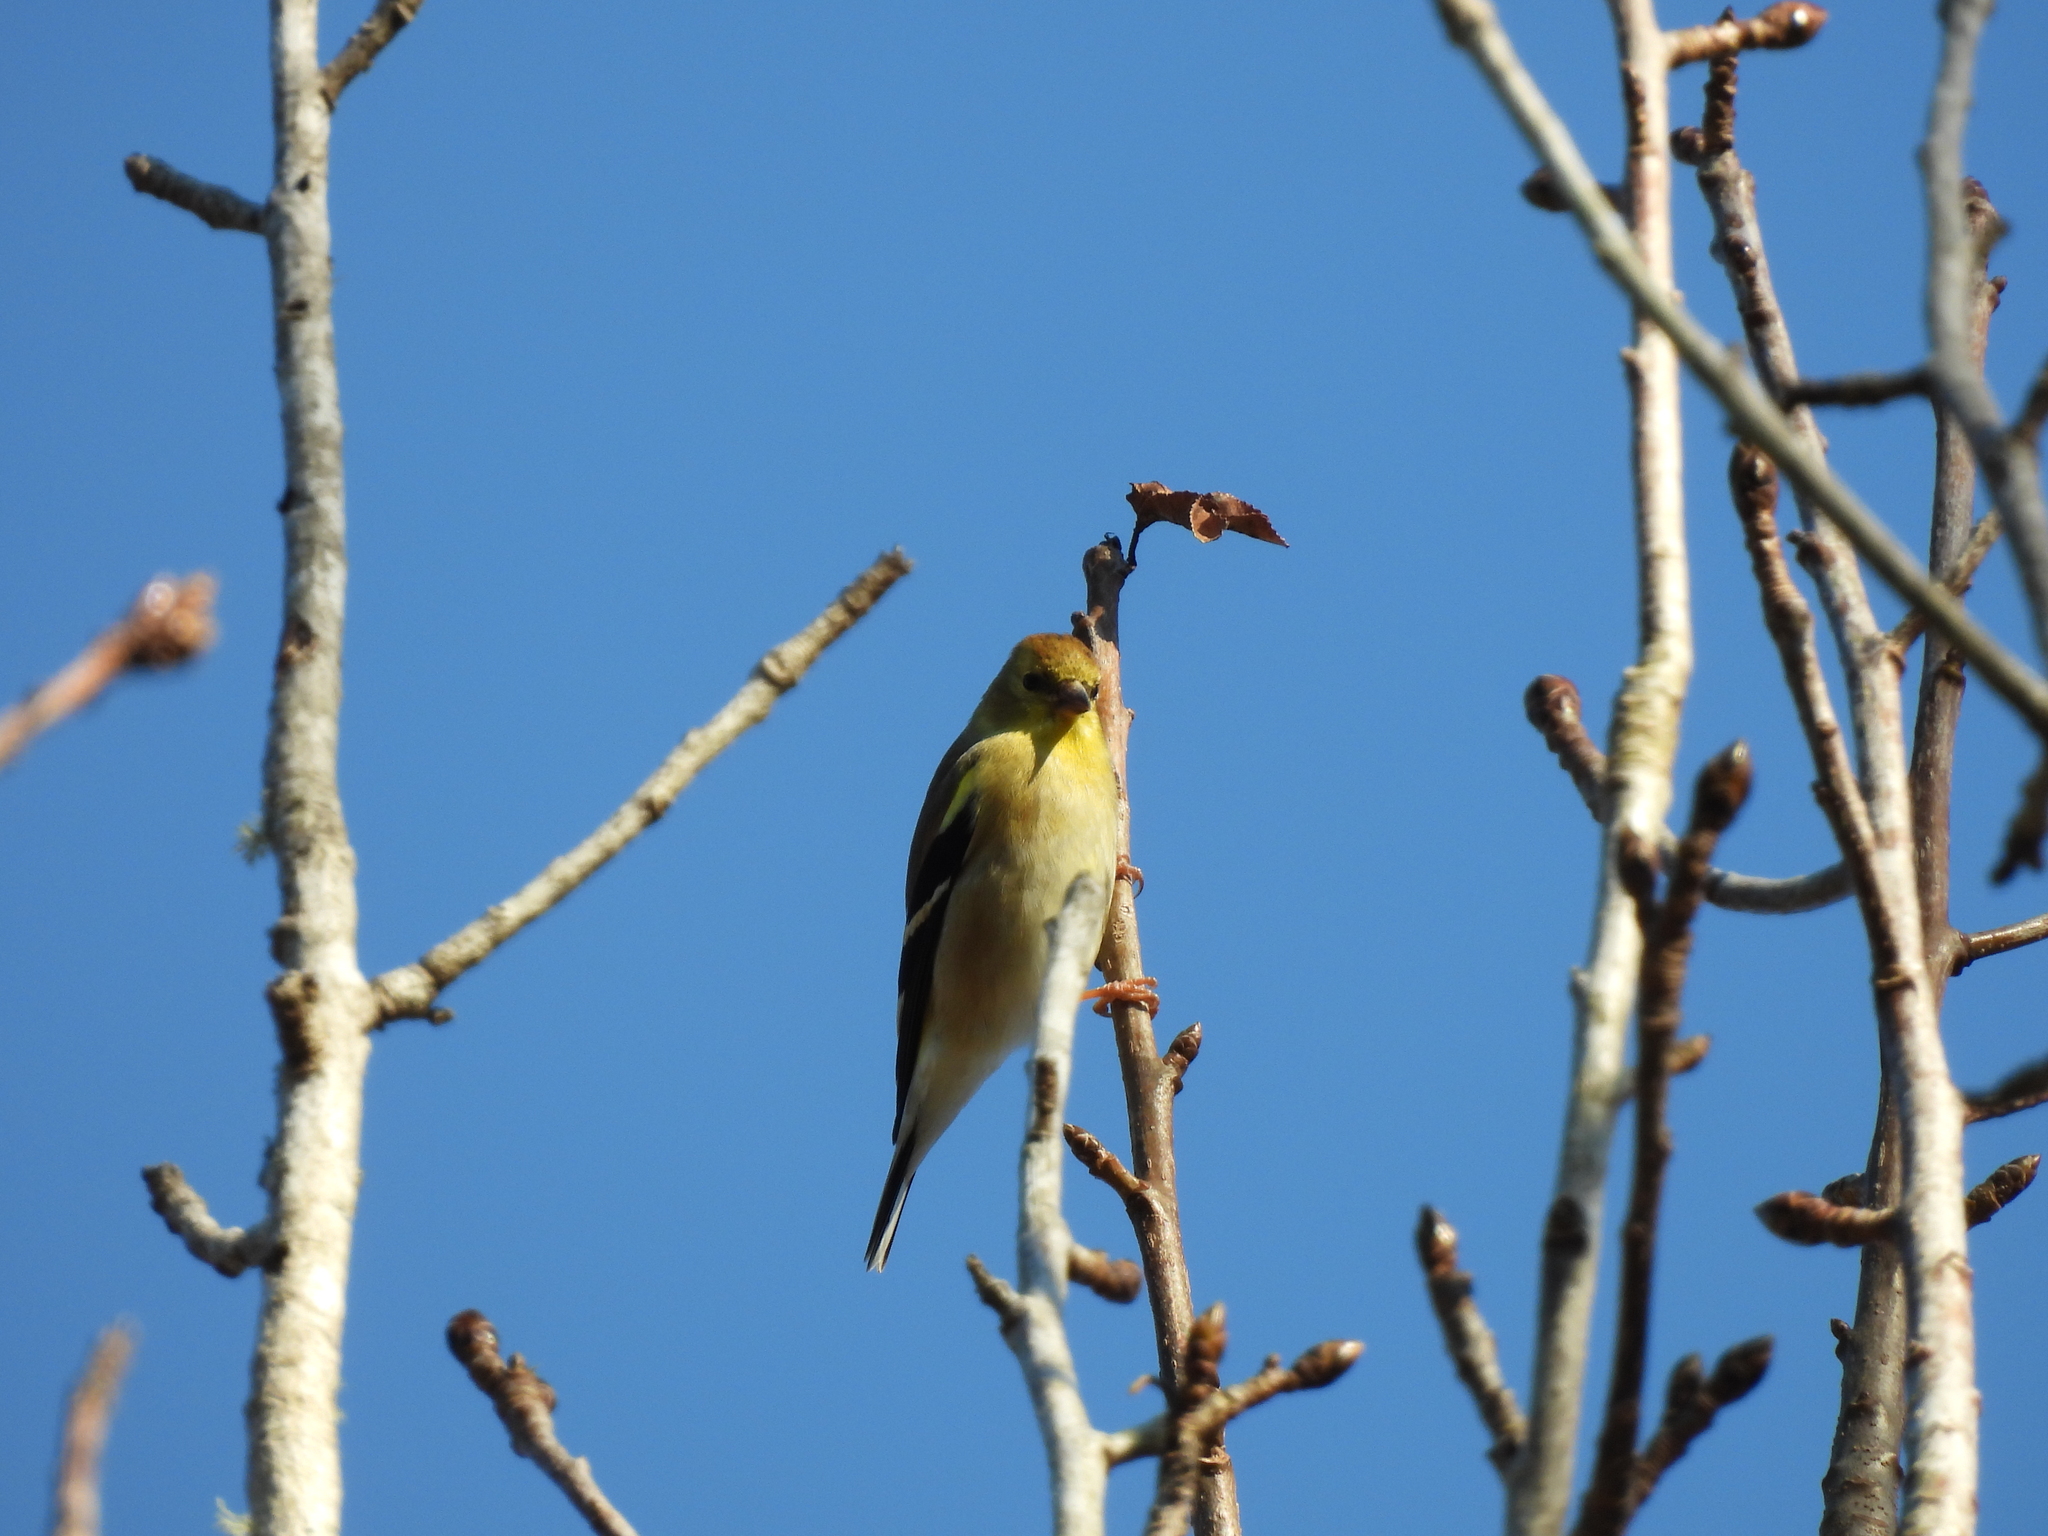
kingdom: Animalia
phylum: Chordata
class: Aves
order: Passeriformes
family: Fringillidae
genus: Spinus
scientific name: Spinus tristis
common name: American goldfinch
